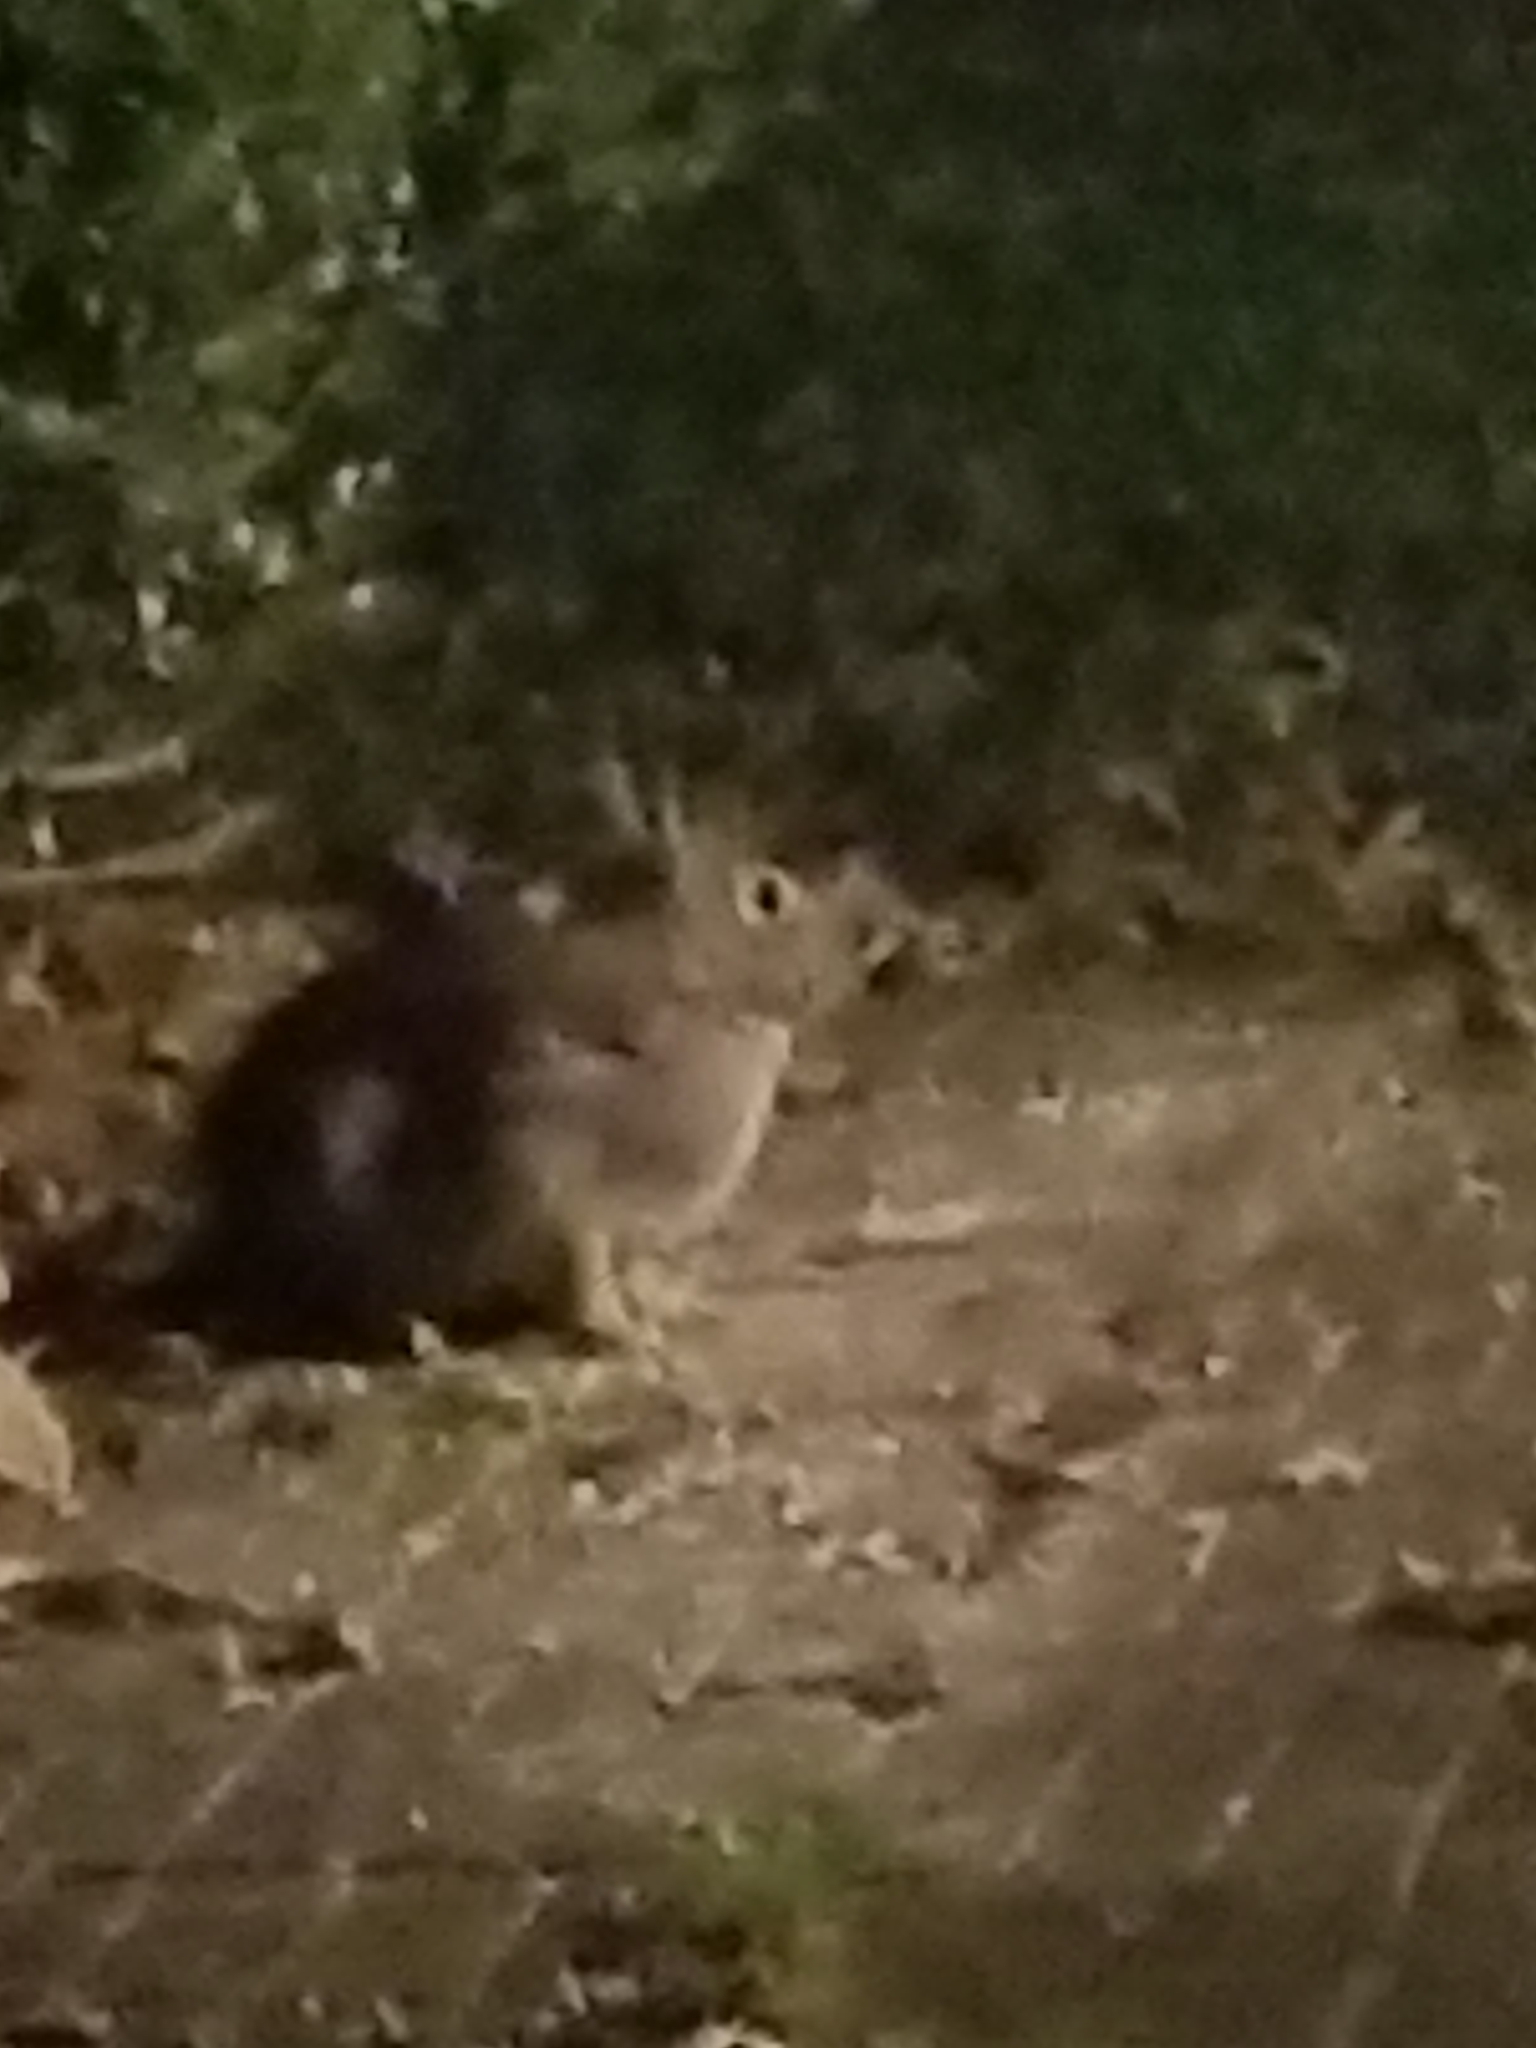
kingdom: Animalia
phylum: Chordata
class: Mammalia
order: Lagomorpha
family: Leporidae
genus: Sylvilagus
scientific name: Sylvilagus floridanus
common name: Eastern cottontail
